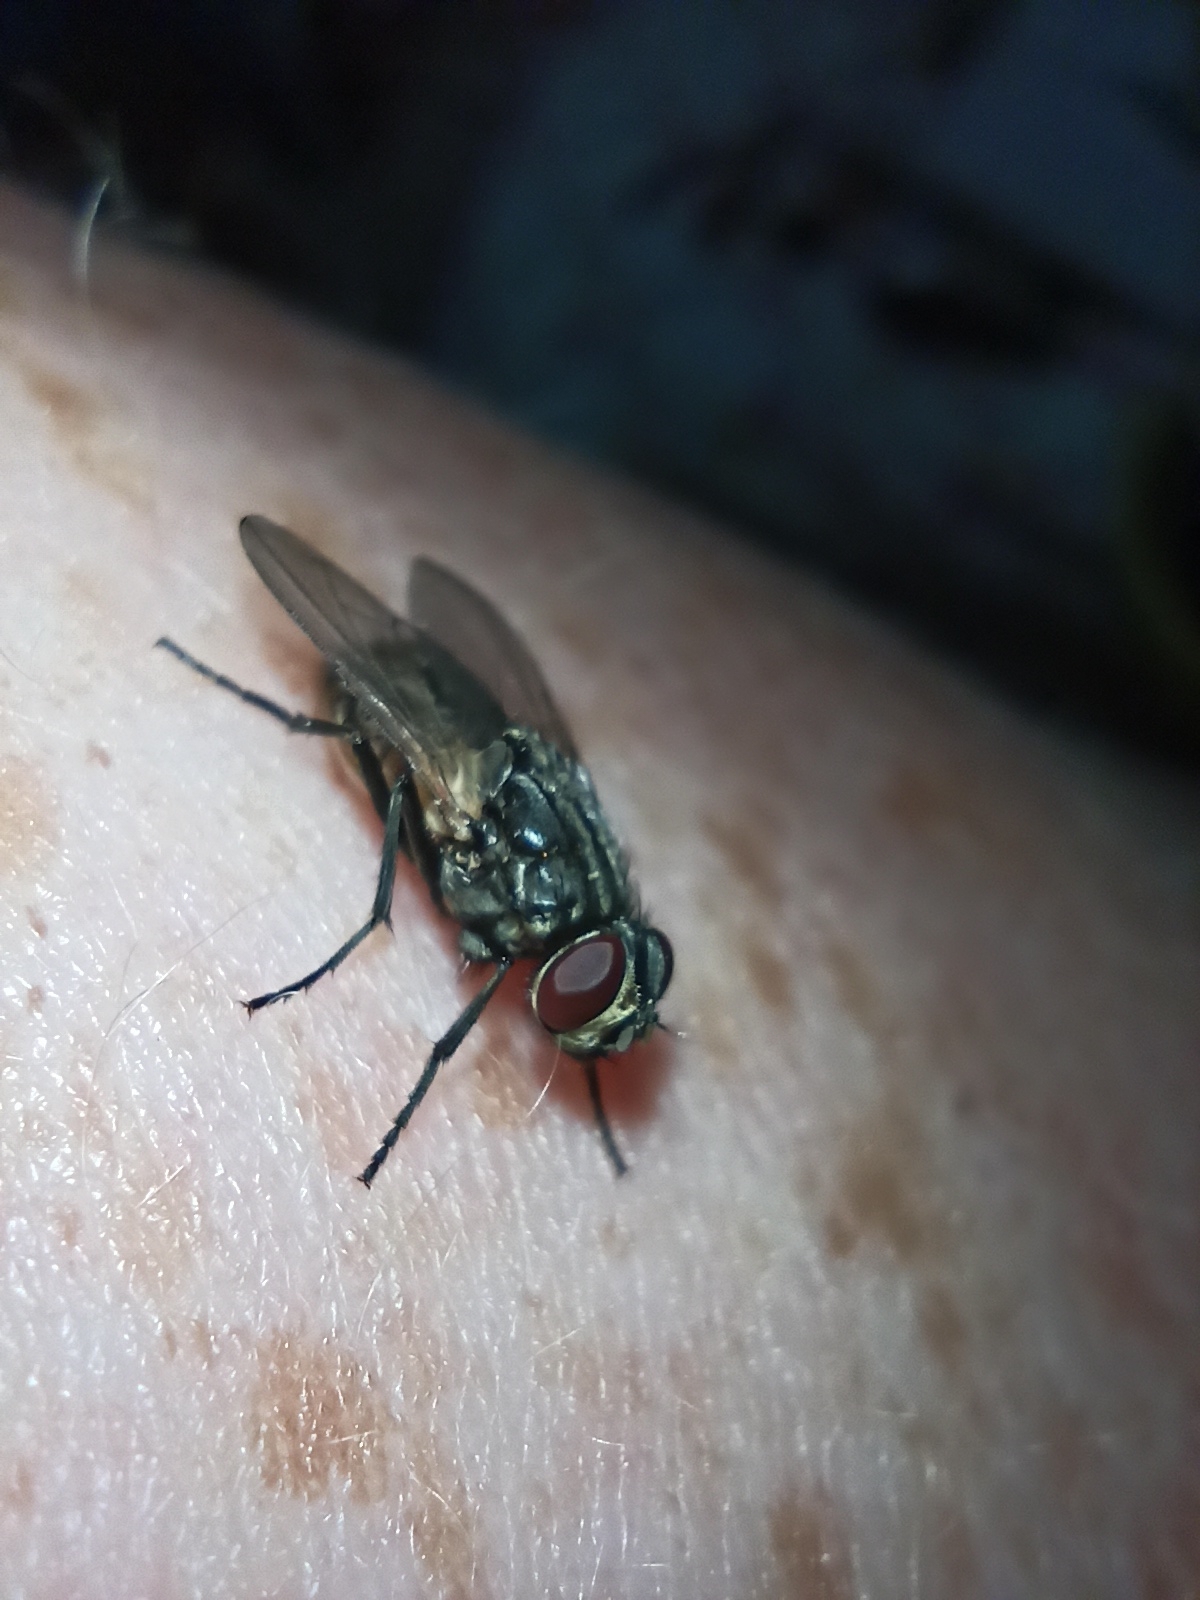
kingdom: Animalia
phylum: Arthropoda
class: Insecta
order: Diptera
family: Muscidae
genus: Musca
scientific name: Musca domestica
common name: House fly
